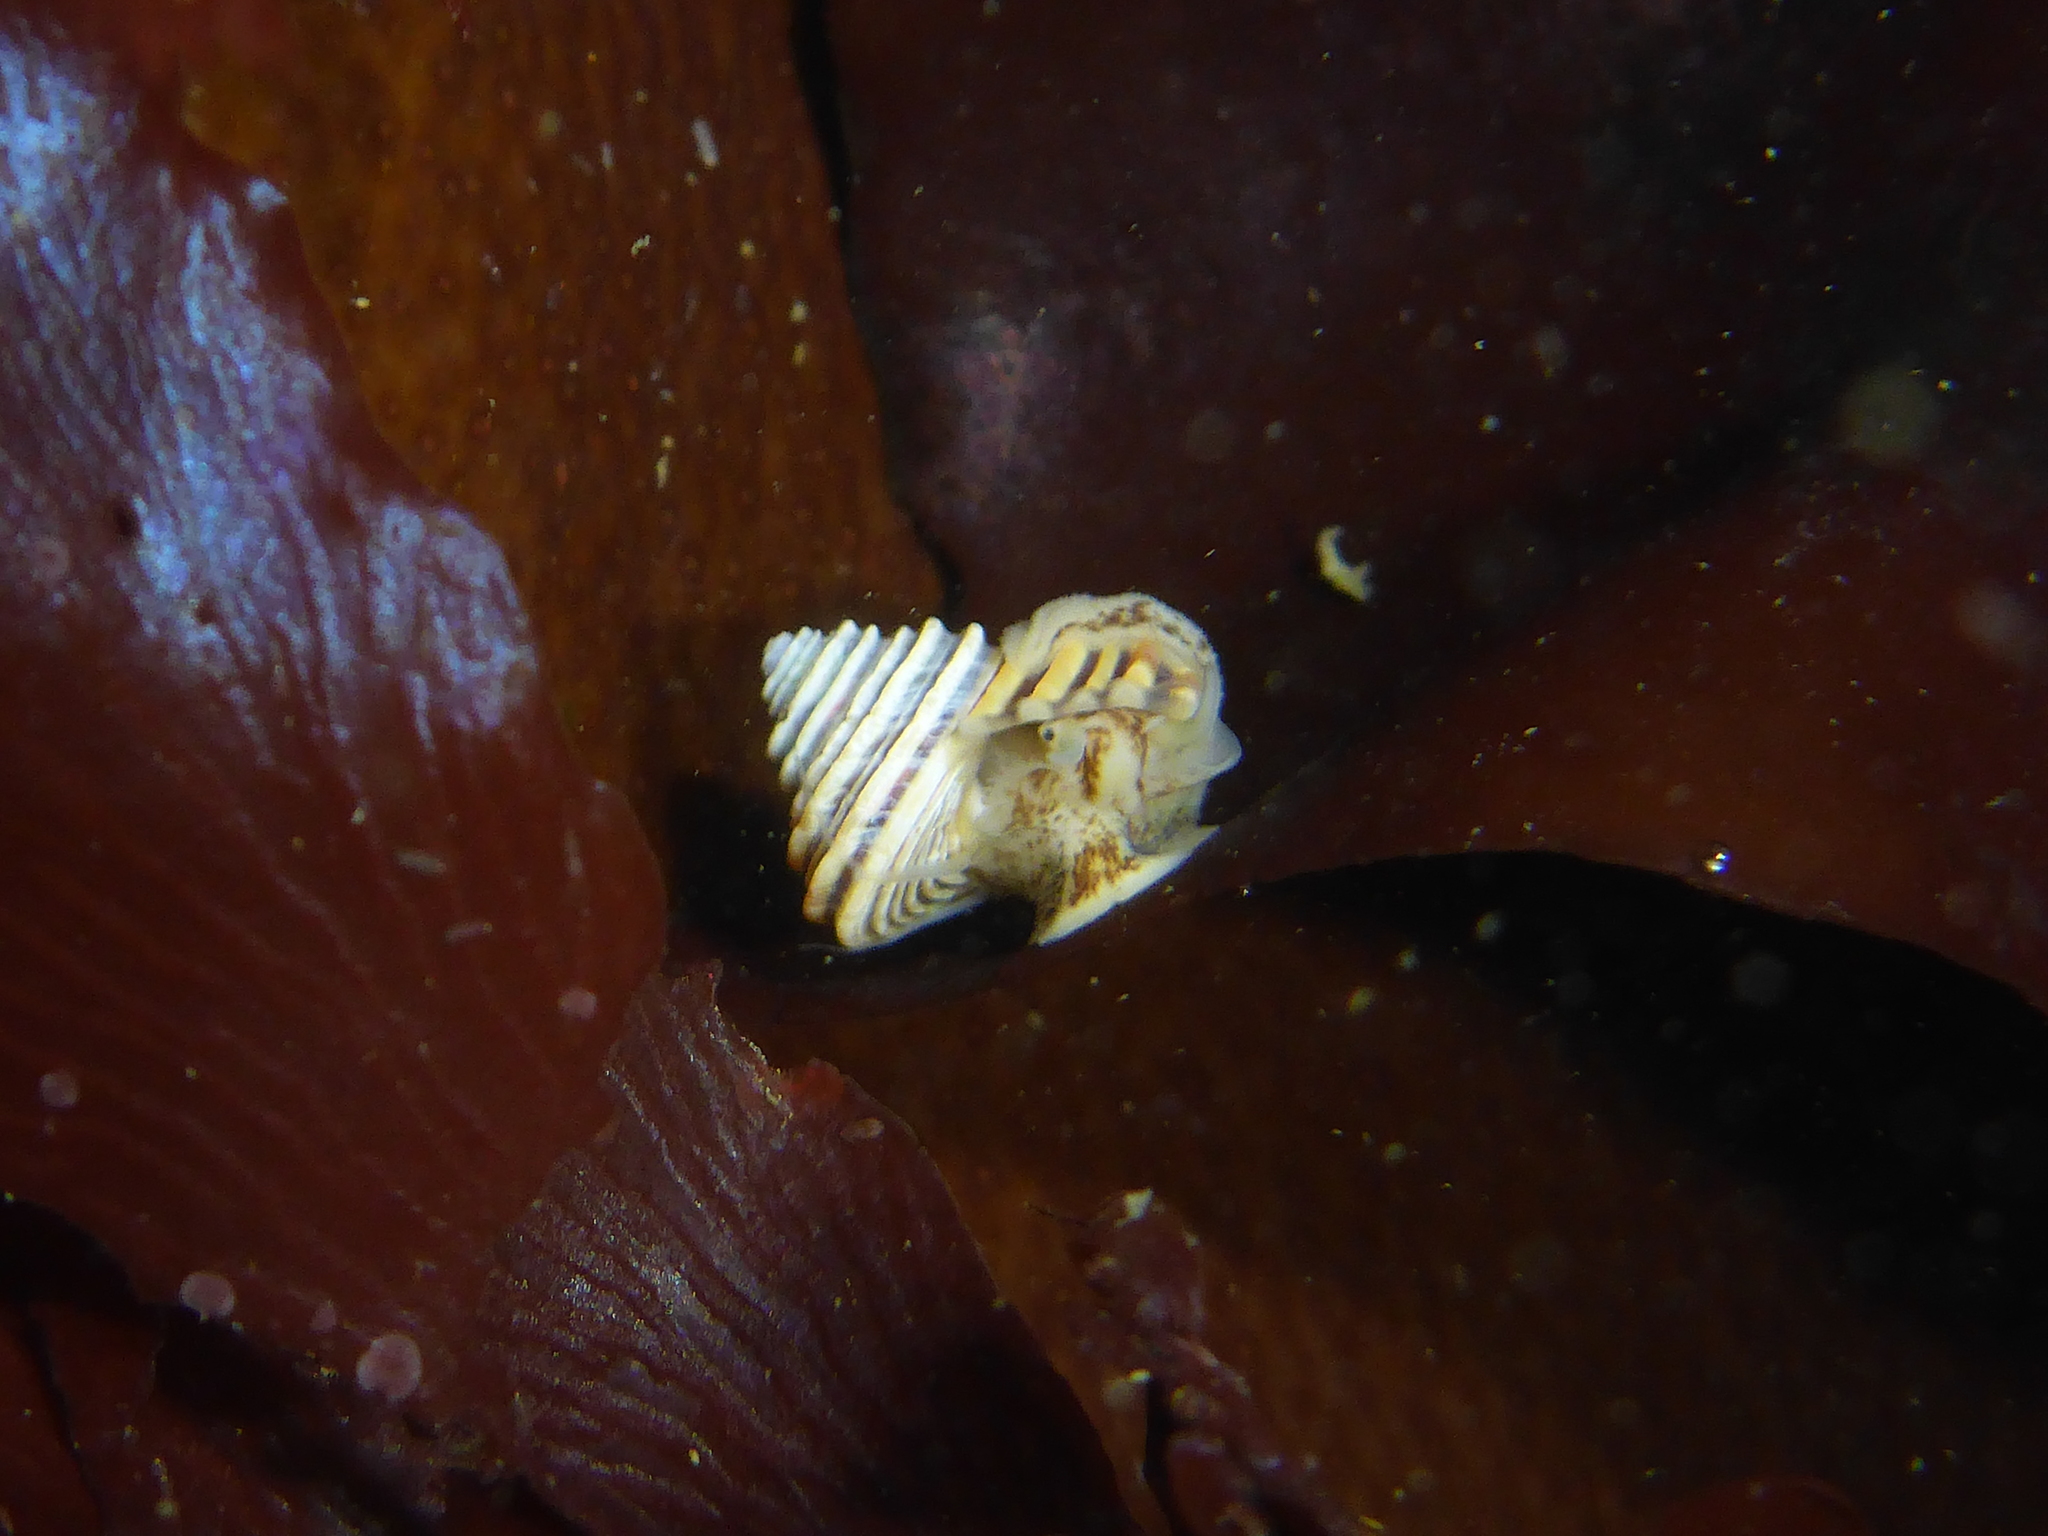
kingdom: Animalia
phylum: Mollusca
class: Gastropoda
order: Trochida
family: Calliostomatidae
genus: Calliostoma
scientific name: Calliostoma canaliculatum
